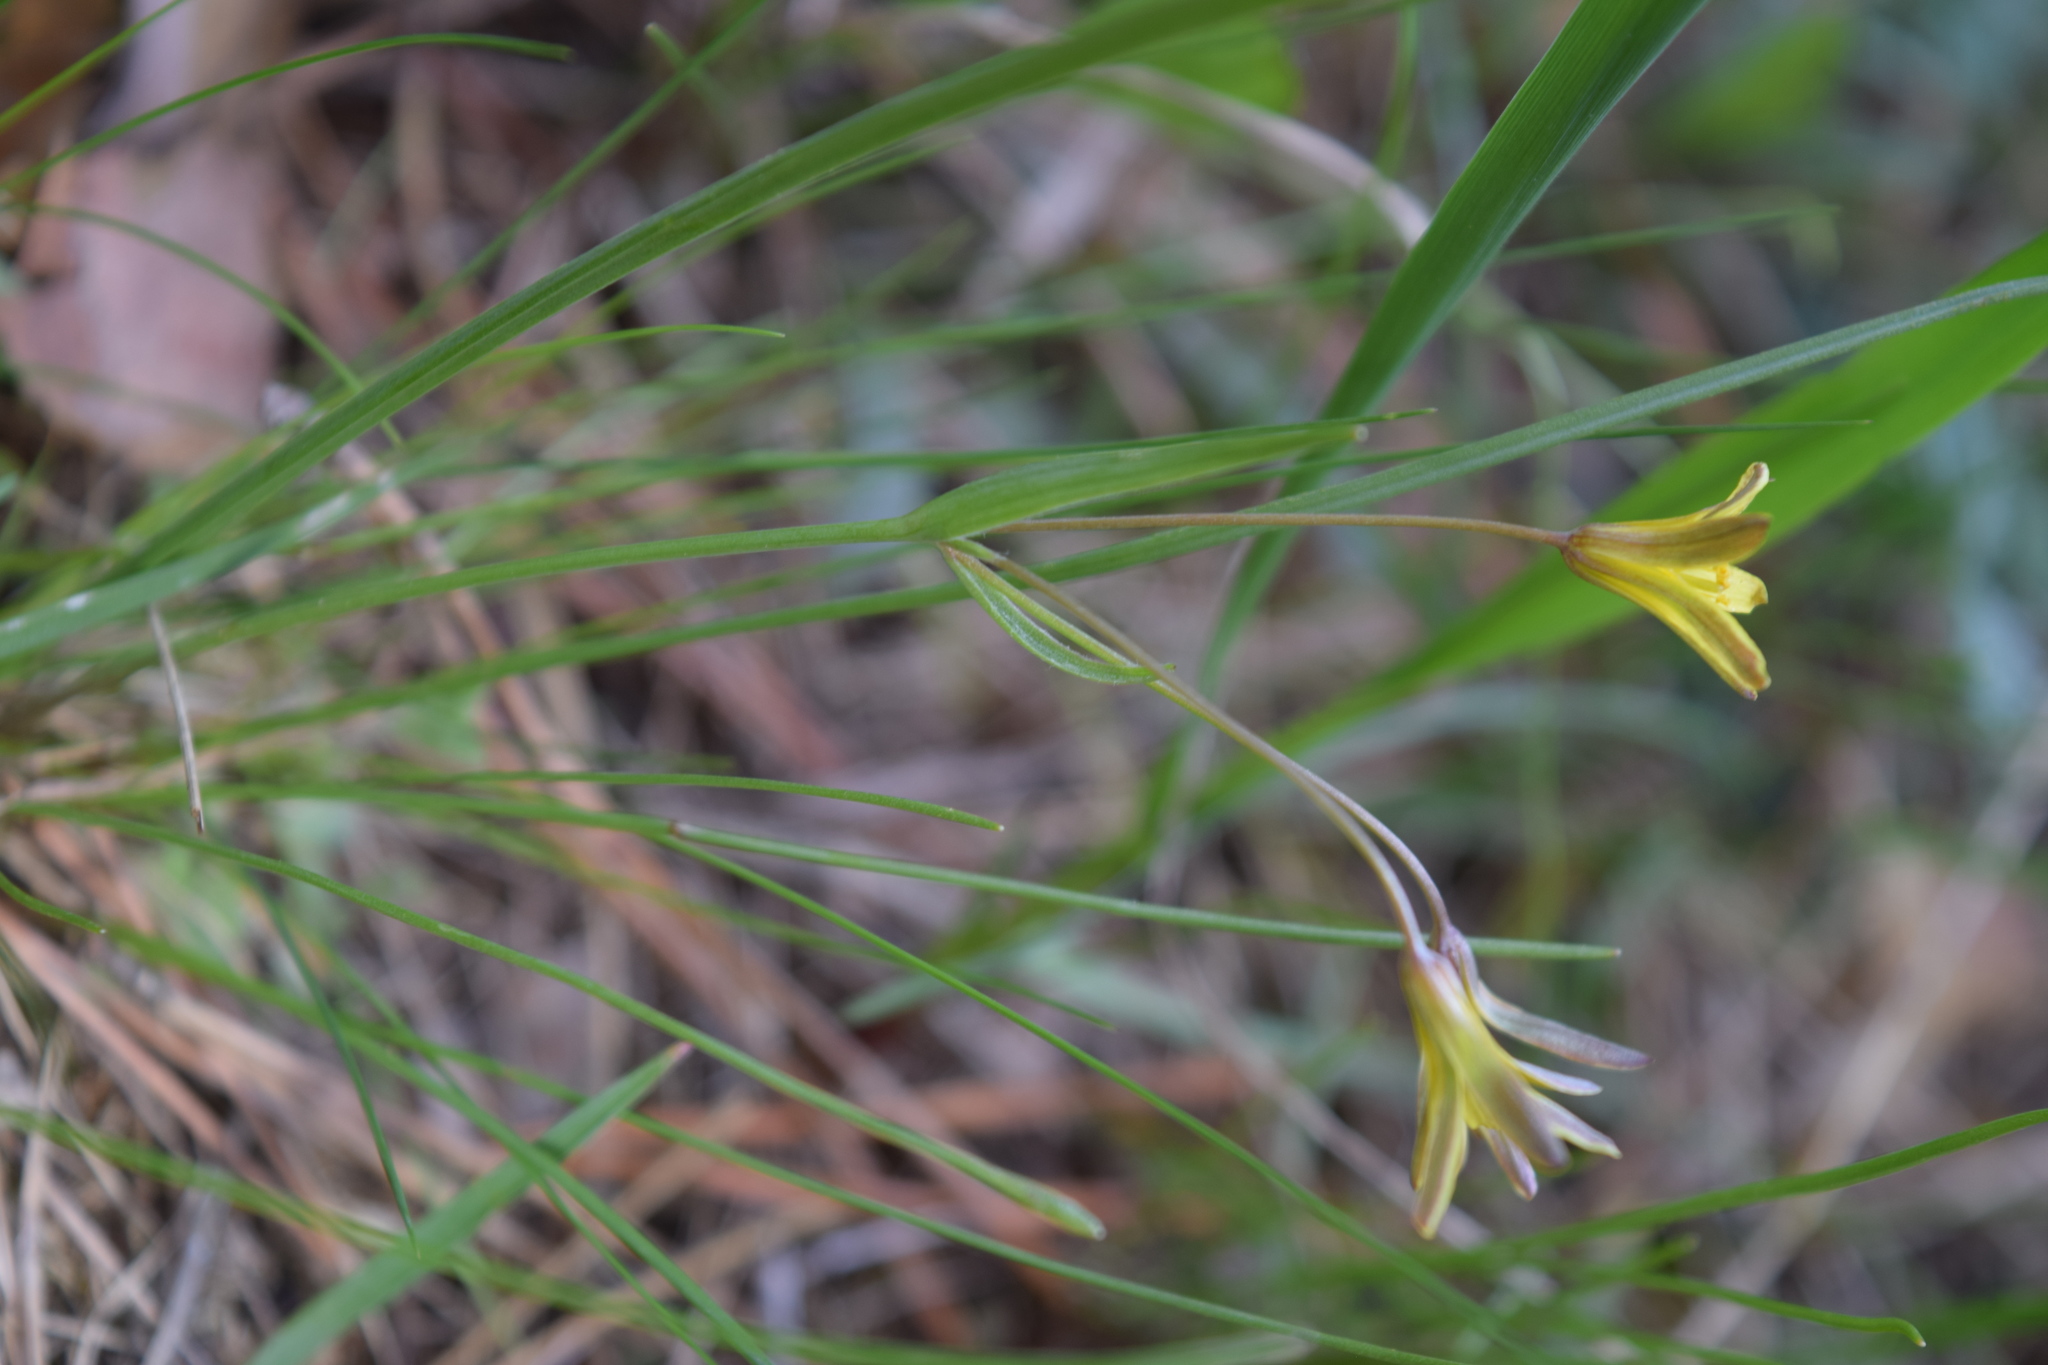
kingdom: Plantae
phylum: Tracheophyta
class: Liliopsida
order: Liliales
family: Liliaceae
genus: Gagea
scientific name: Gagea fragifera
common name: Lily
